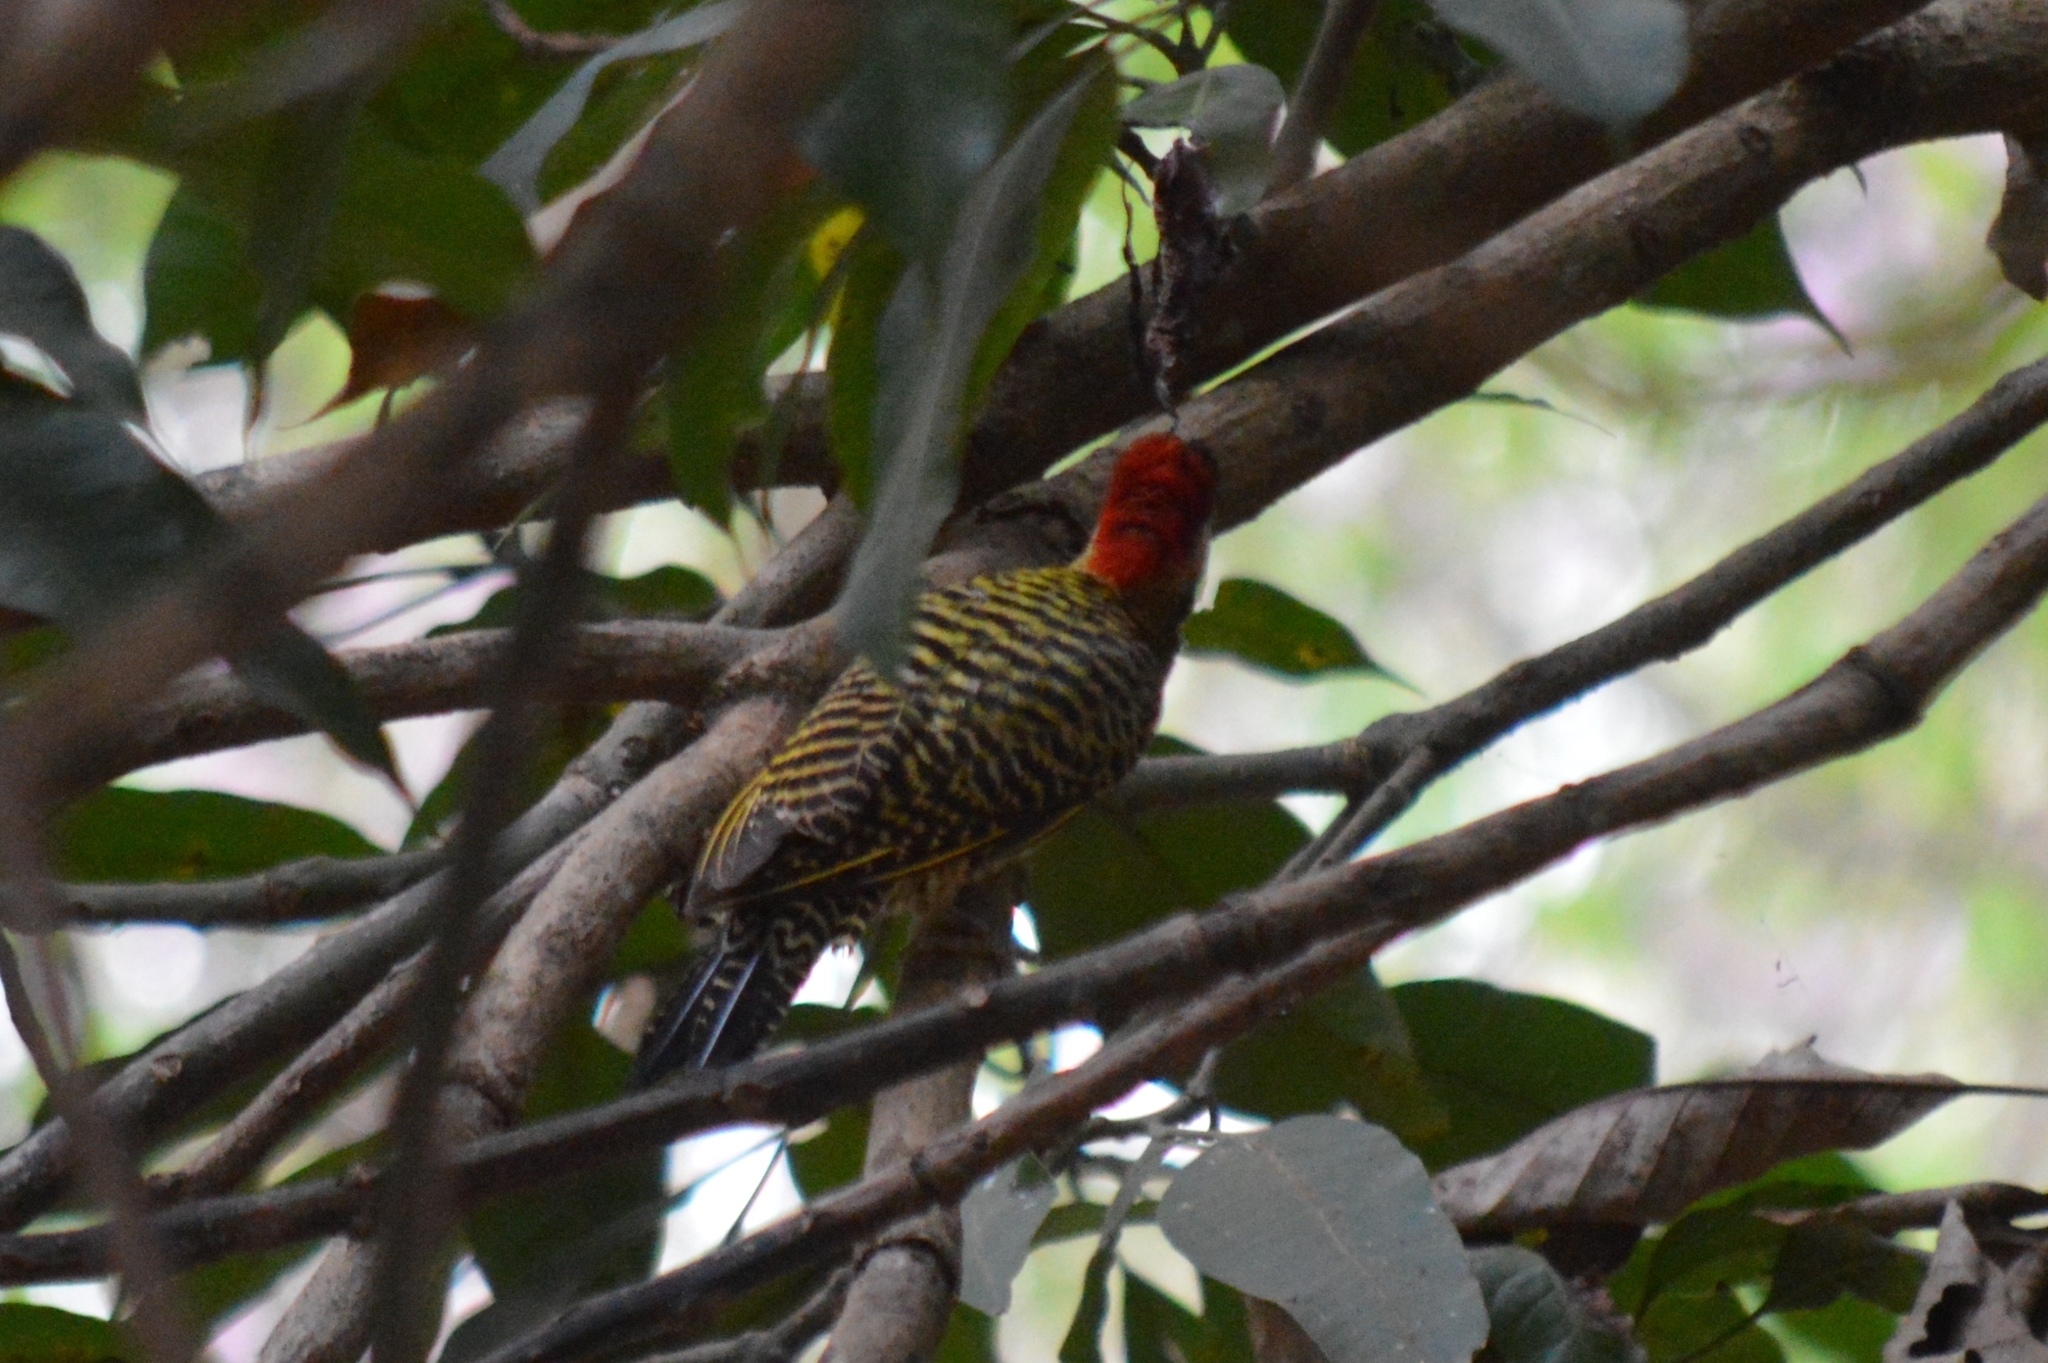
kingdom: Animalia
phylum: Chordata
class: Aves
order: Piciformes
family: Picidae
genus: Colaptes
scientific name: Colaptes melanochloros
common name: Green-barred woodpecker
